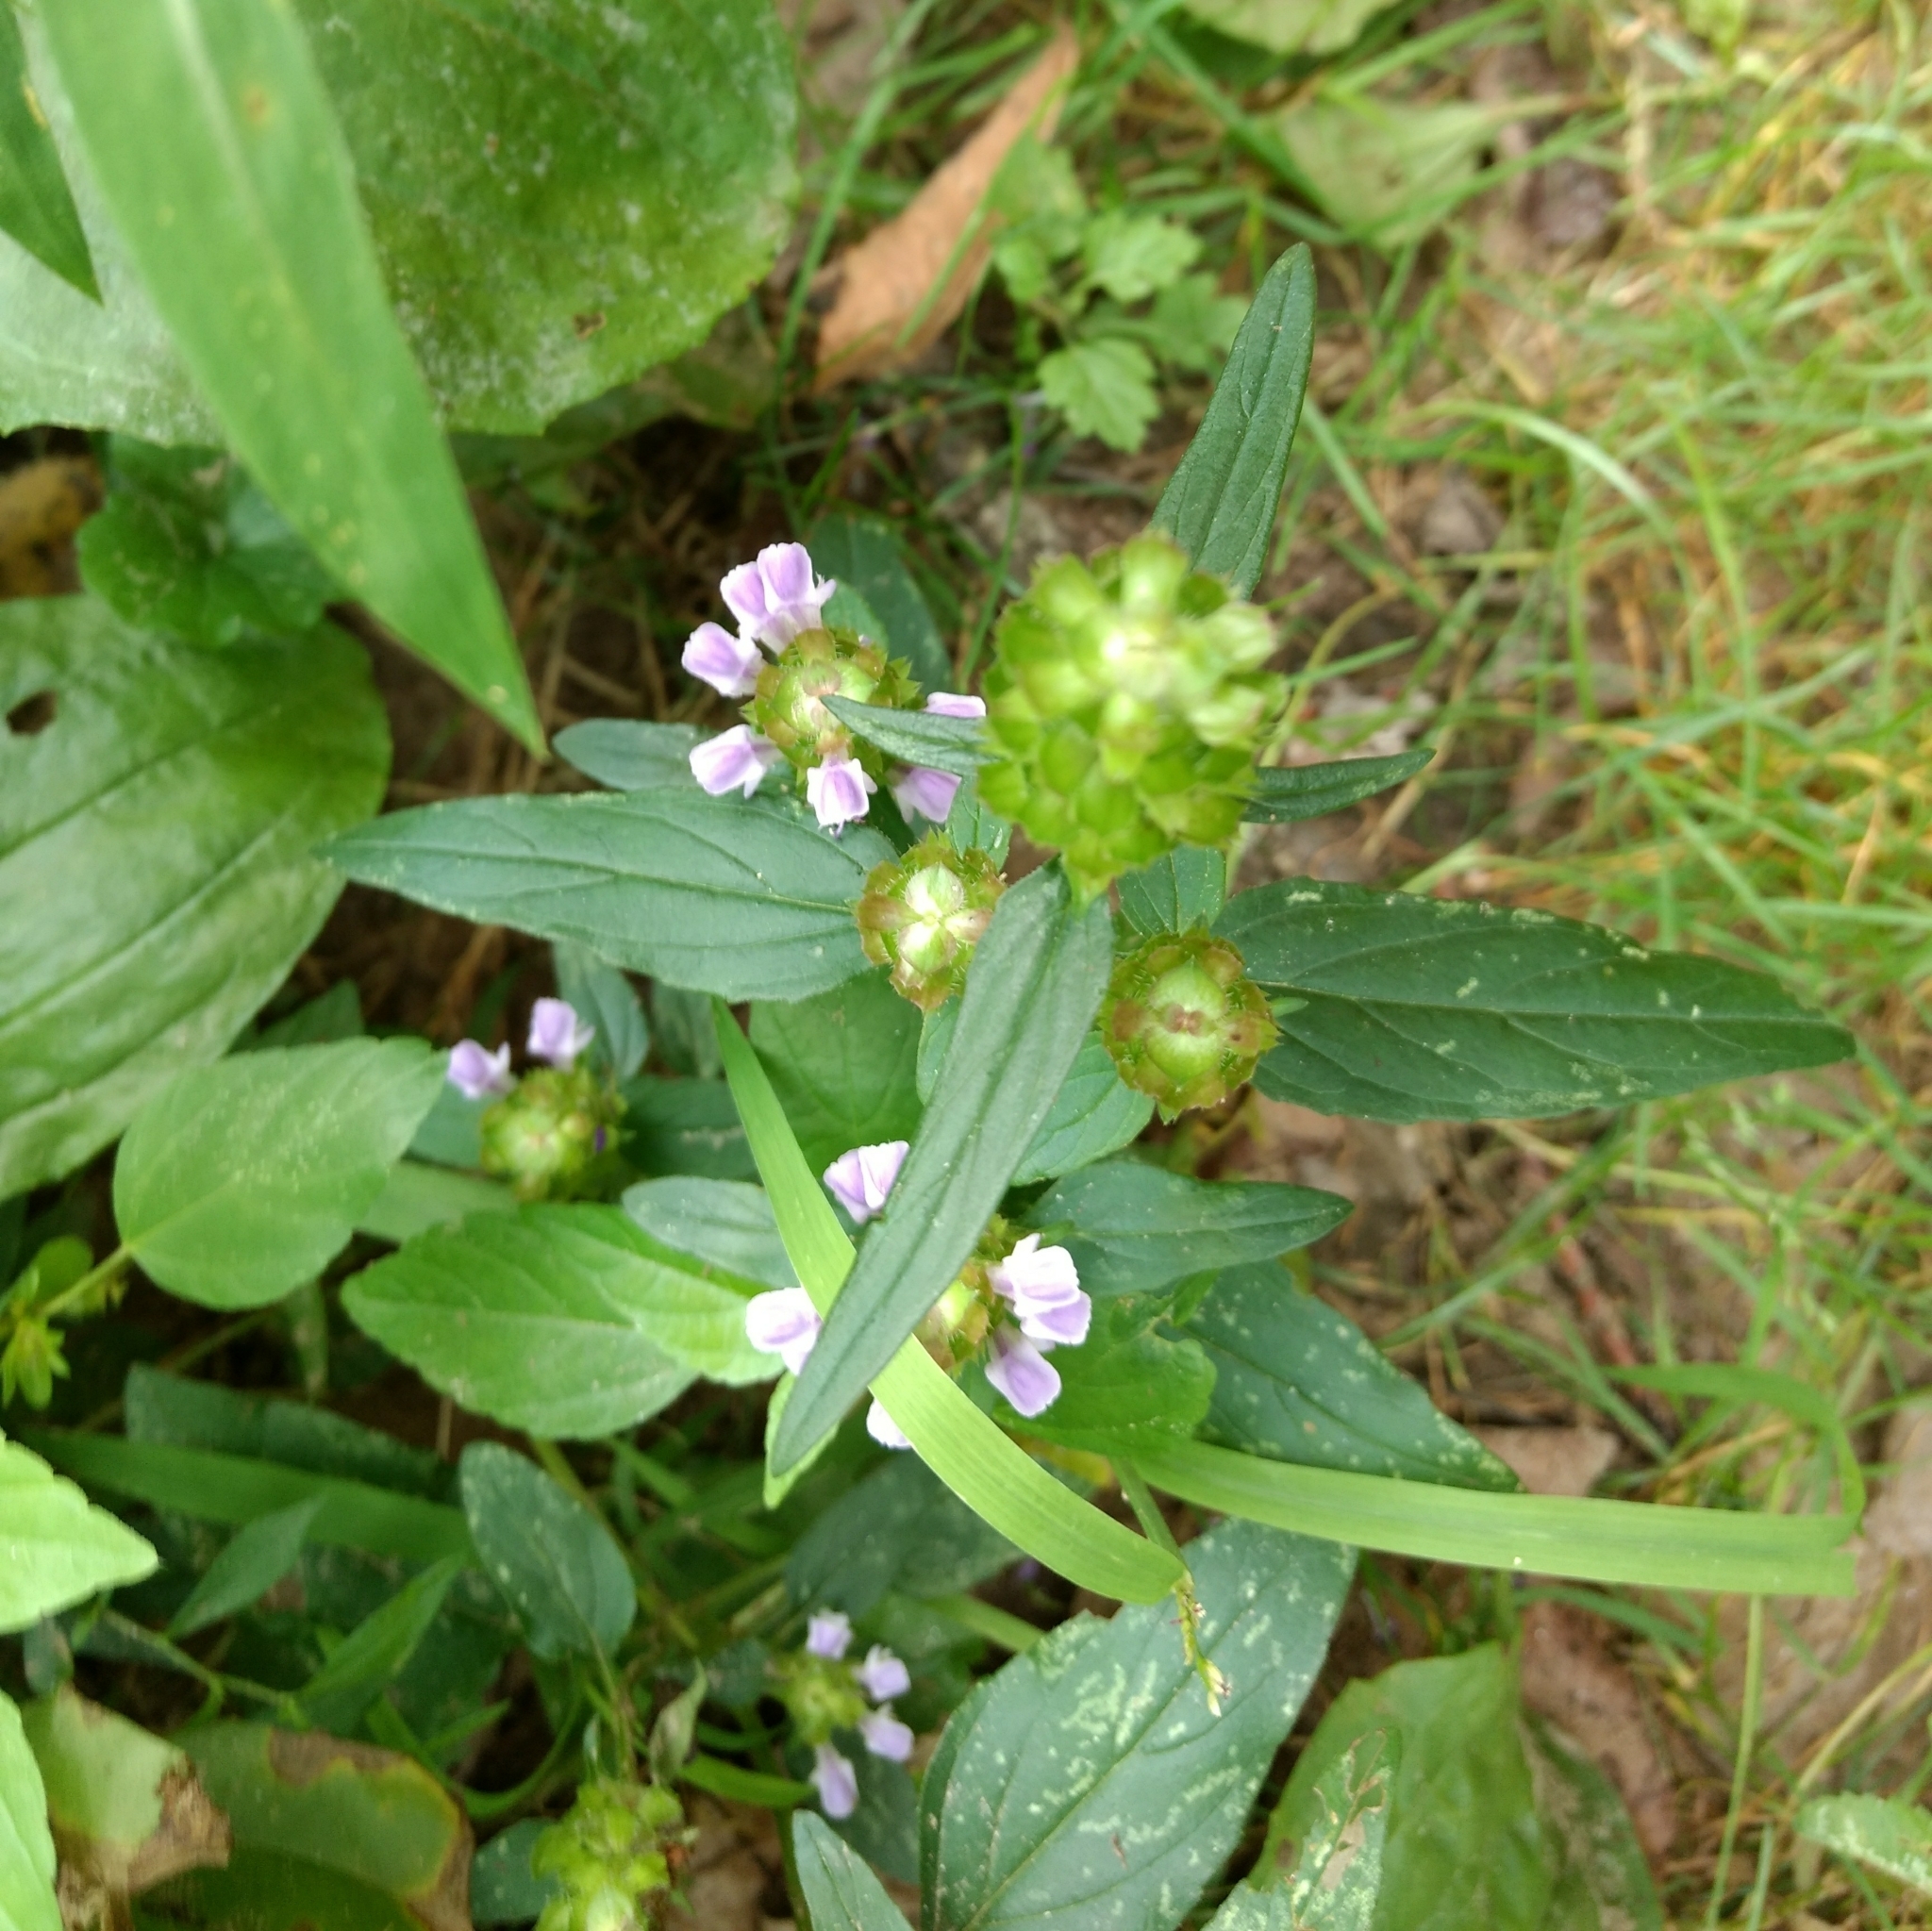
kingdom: Plantae
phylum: Tracheophyta
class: Magnoliopsida
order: Lamiales
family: Lamiaceae
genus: Prunella
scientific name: Prunella vulgaris
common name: Heal-all
